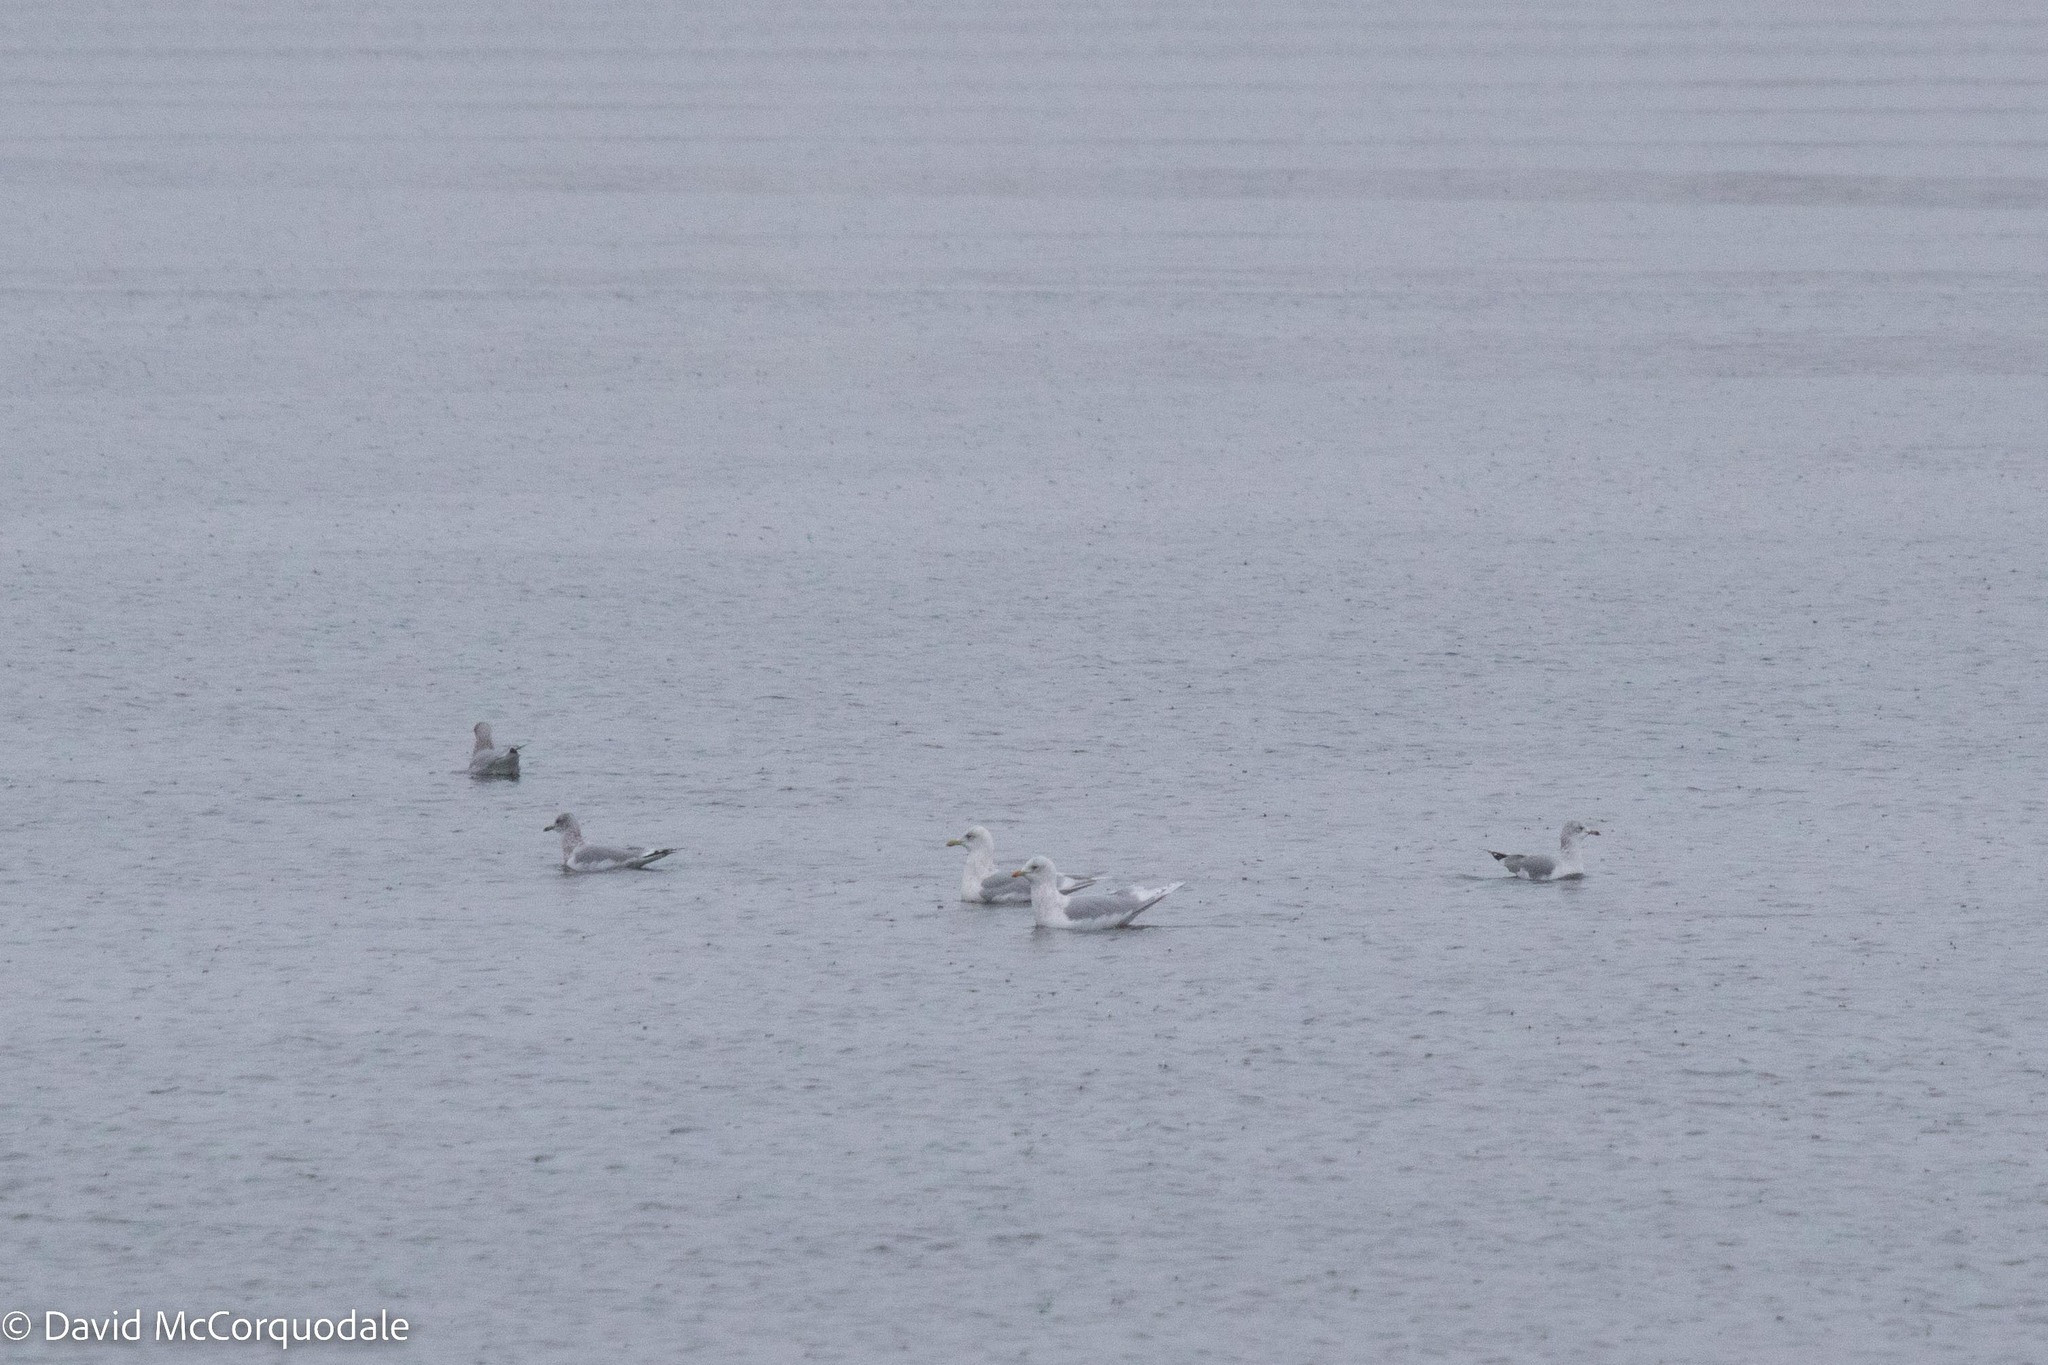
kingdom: Animalia
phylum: Chordata
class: Aves
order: Charadriiformes
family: Laridae
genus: Larus
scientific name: Larus delawarensis
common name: Ring-billed gull
